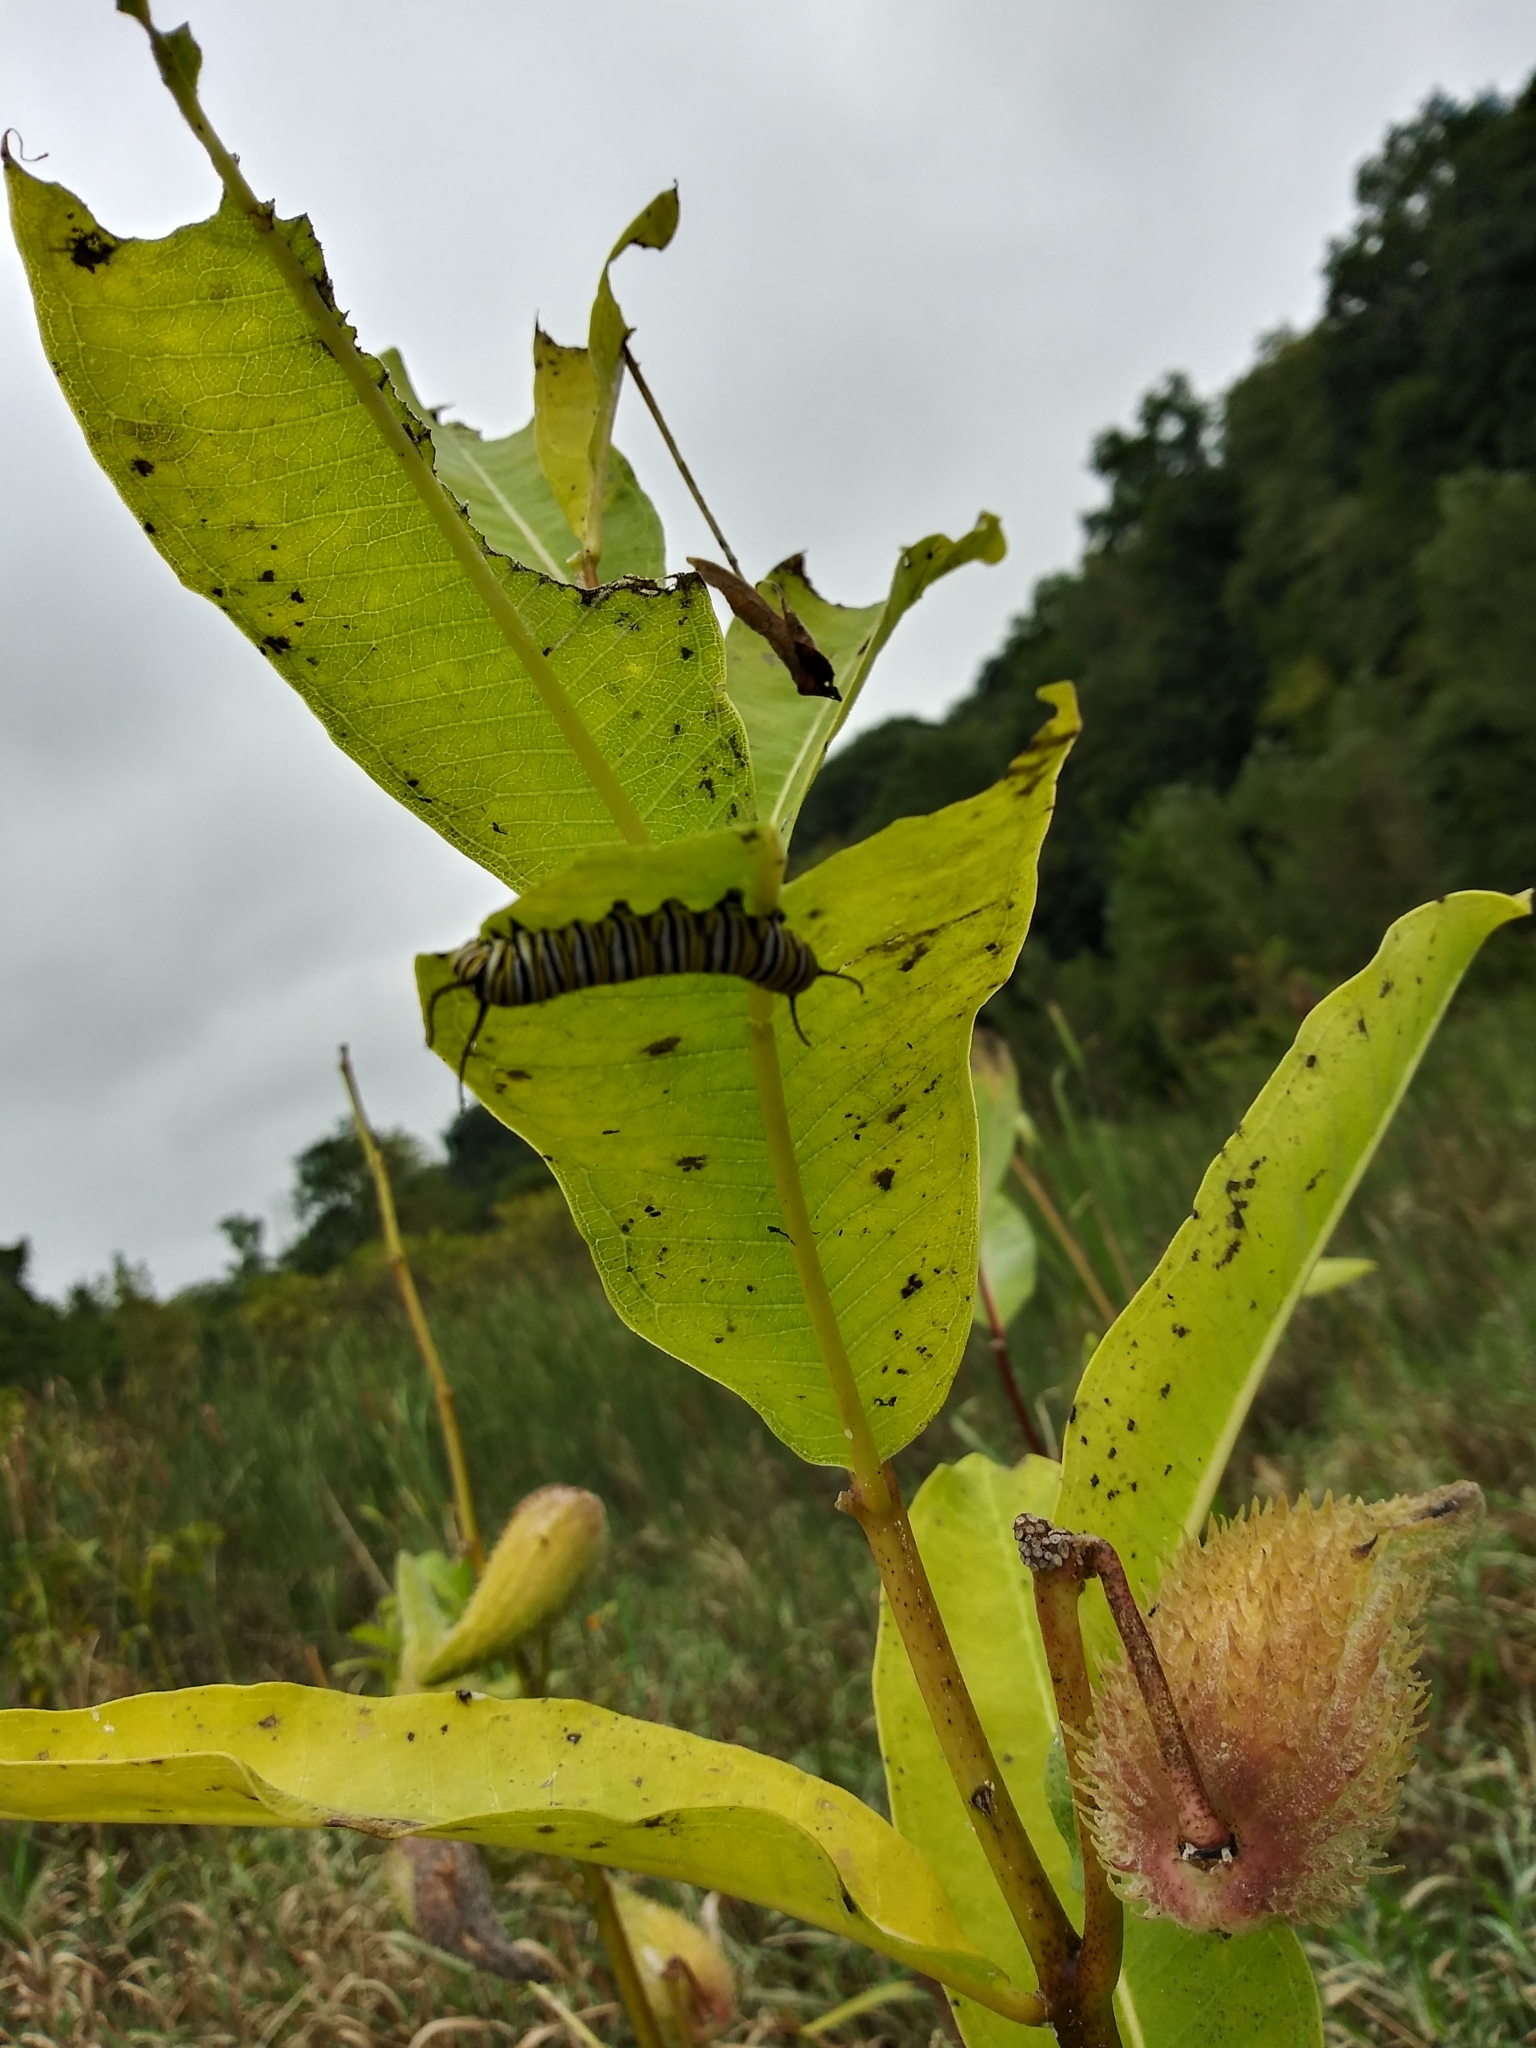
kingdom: Animalia
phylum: Arthropoda
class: Insecta
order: Lepidoptera
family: Nymphalidae
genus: Danaus
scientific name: Danaus plexippus
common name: Monarch
